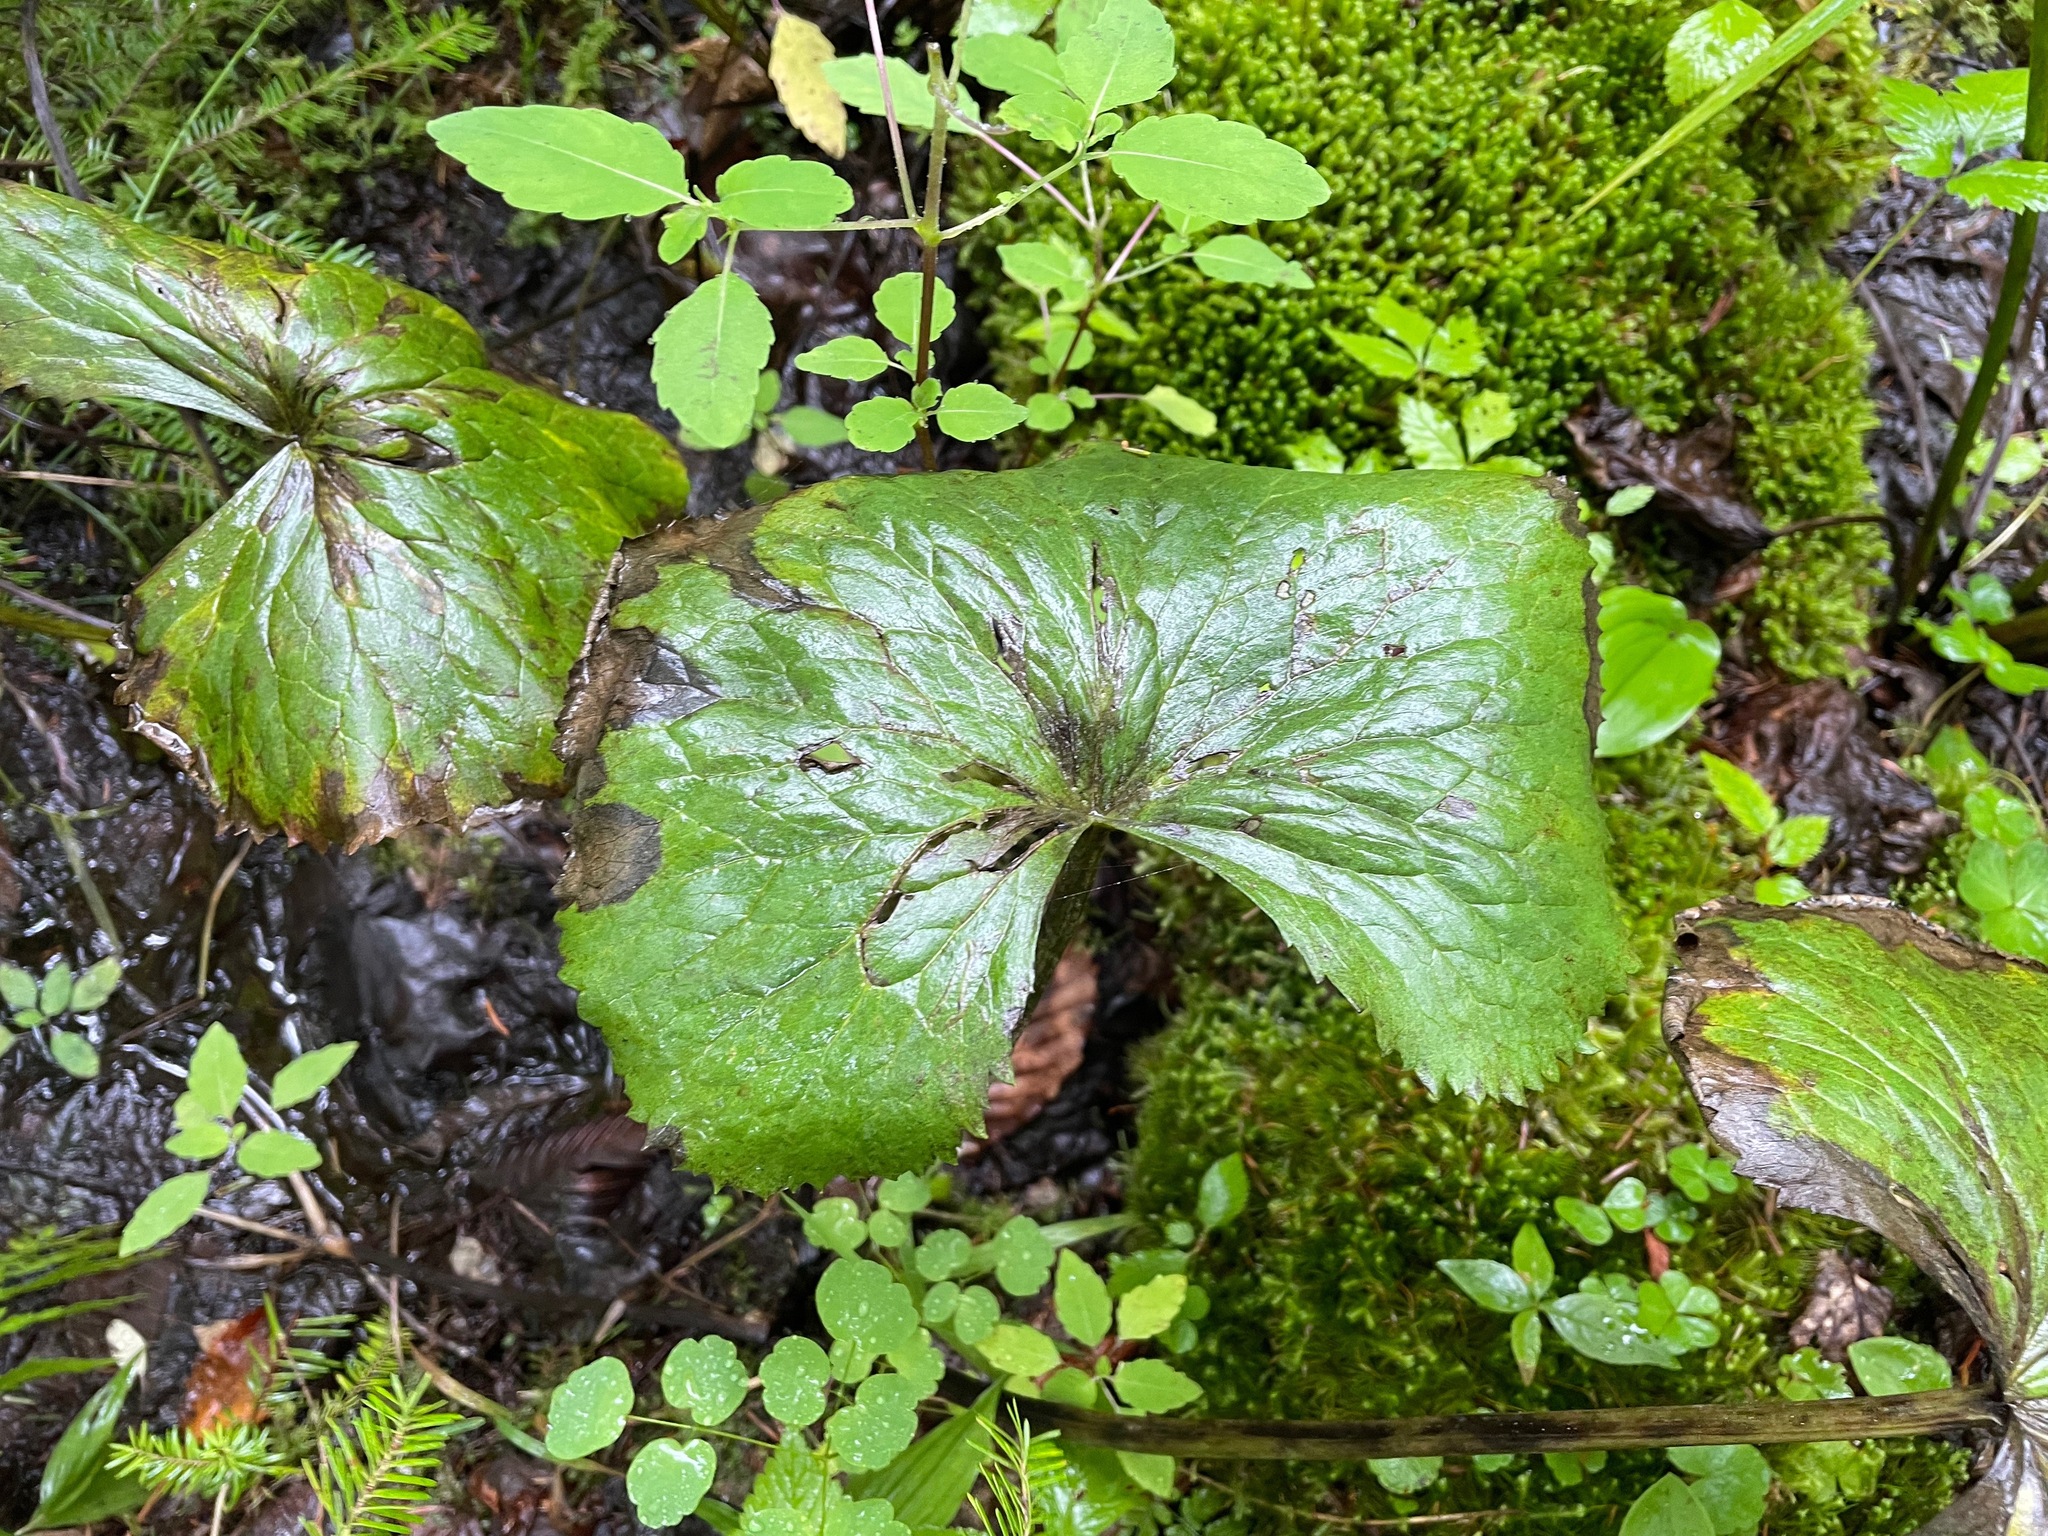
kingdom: Plantae
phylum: Tracheophyta
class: Magnoliopsida
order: Ranunculales
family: Ranunculaceae
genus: Caltha
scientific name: Caltha palustris
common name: Marsh marigold
